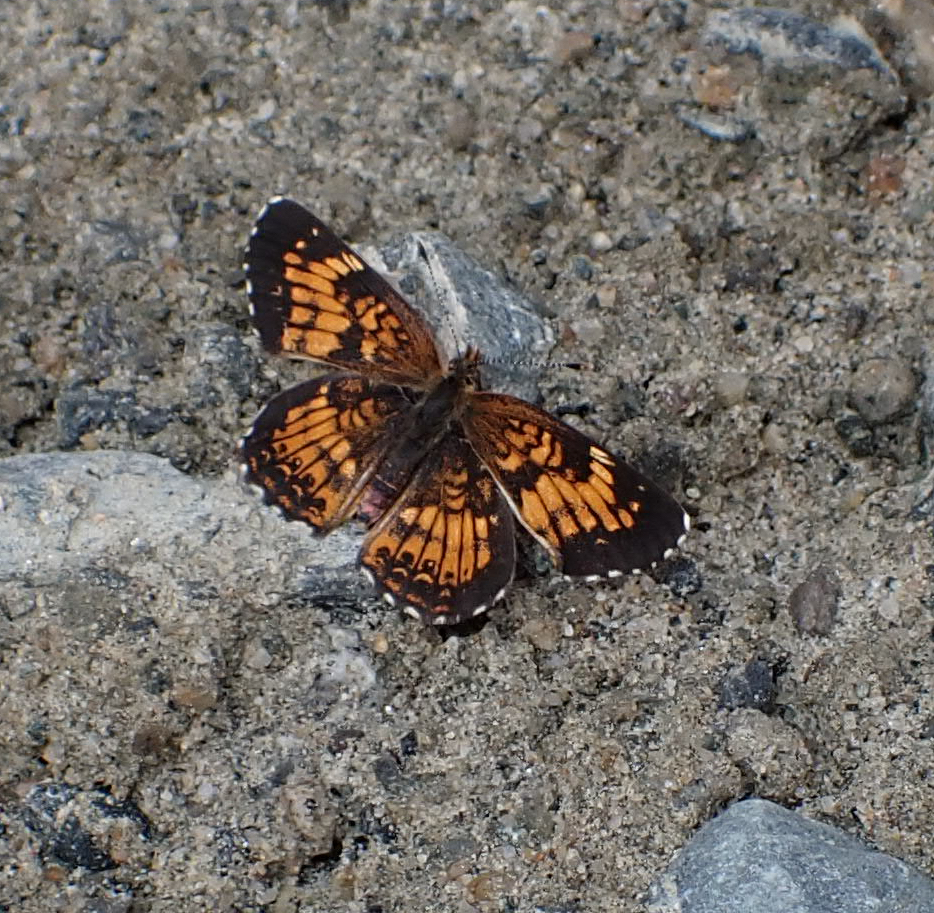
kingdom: Animalia
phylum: Arthropoda
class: Insecta
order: Lepidoptera
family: Nymphalidae
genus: Chlosyne
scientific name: Chlosyne harrisii
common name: Harris's checkerspot
